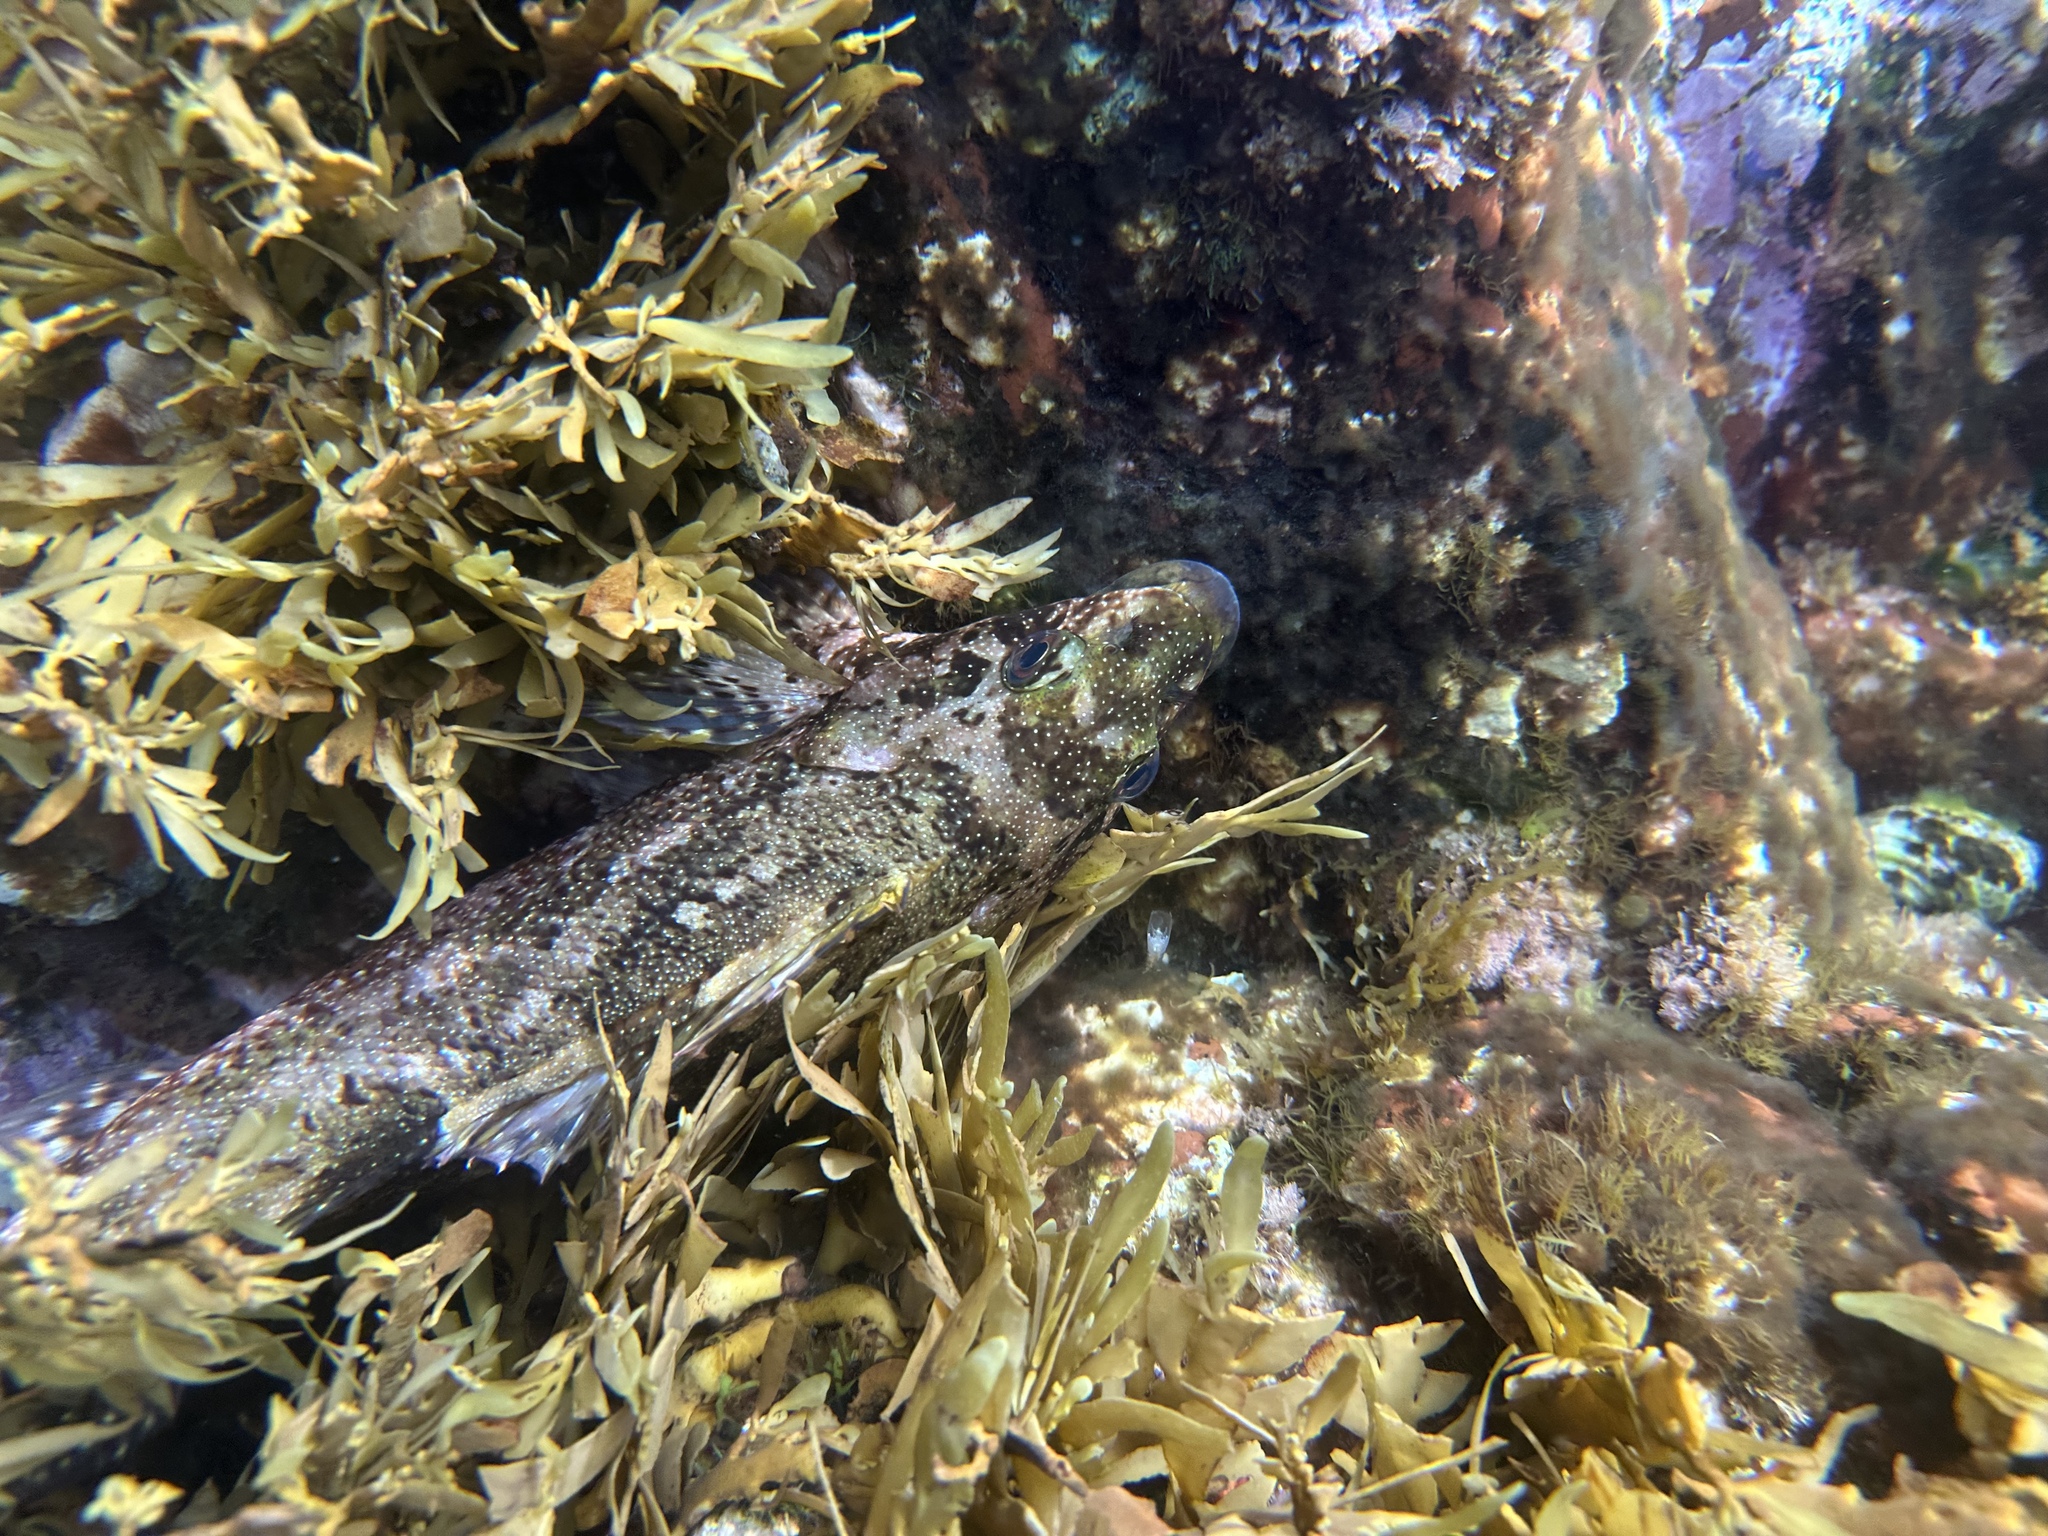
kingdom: Animalia
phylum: Chordata
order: Perciformes
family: Chironemidae
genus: Chironemus
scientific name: Chironemus marmoratus
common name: Kelpfish
